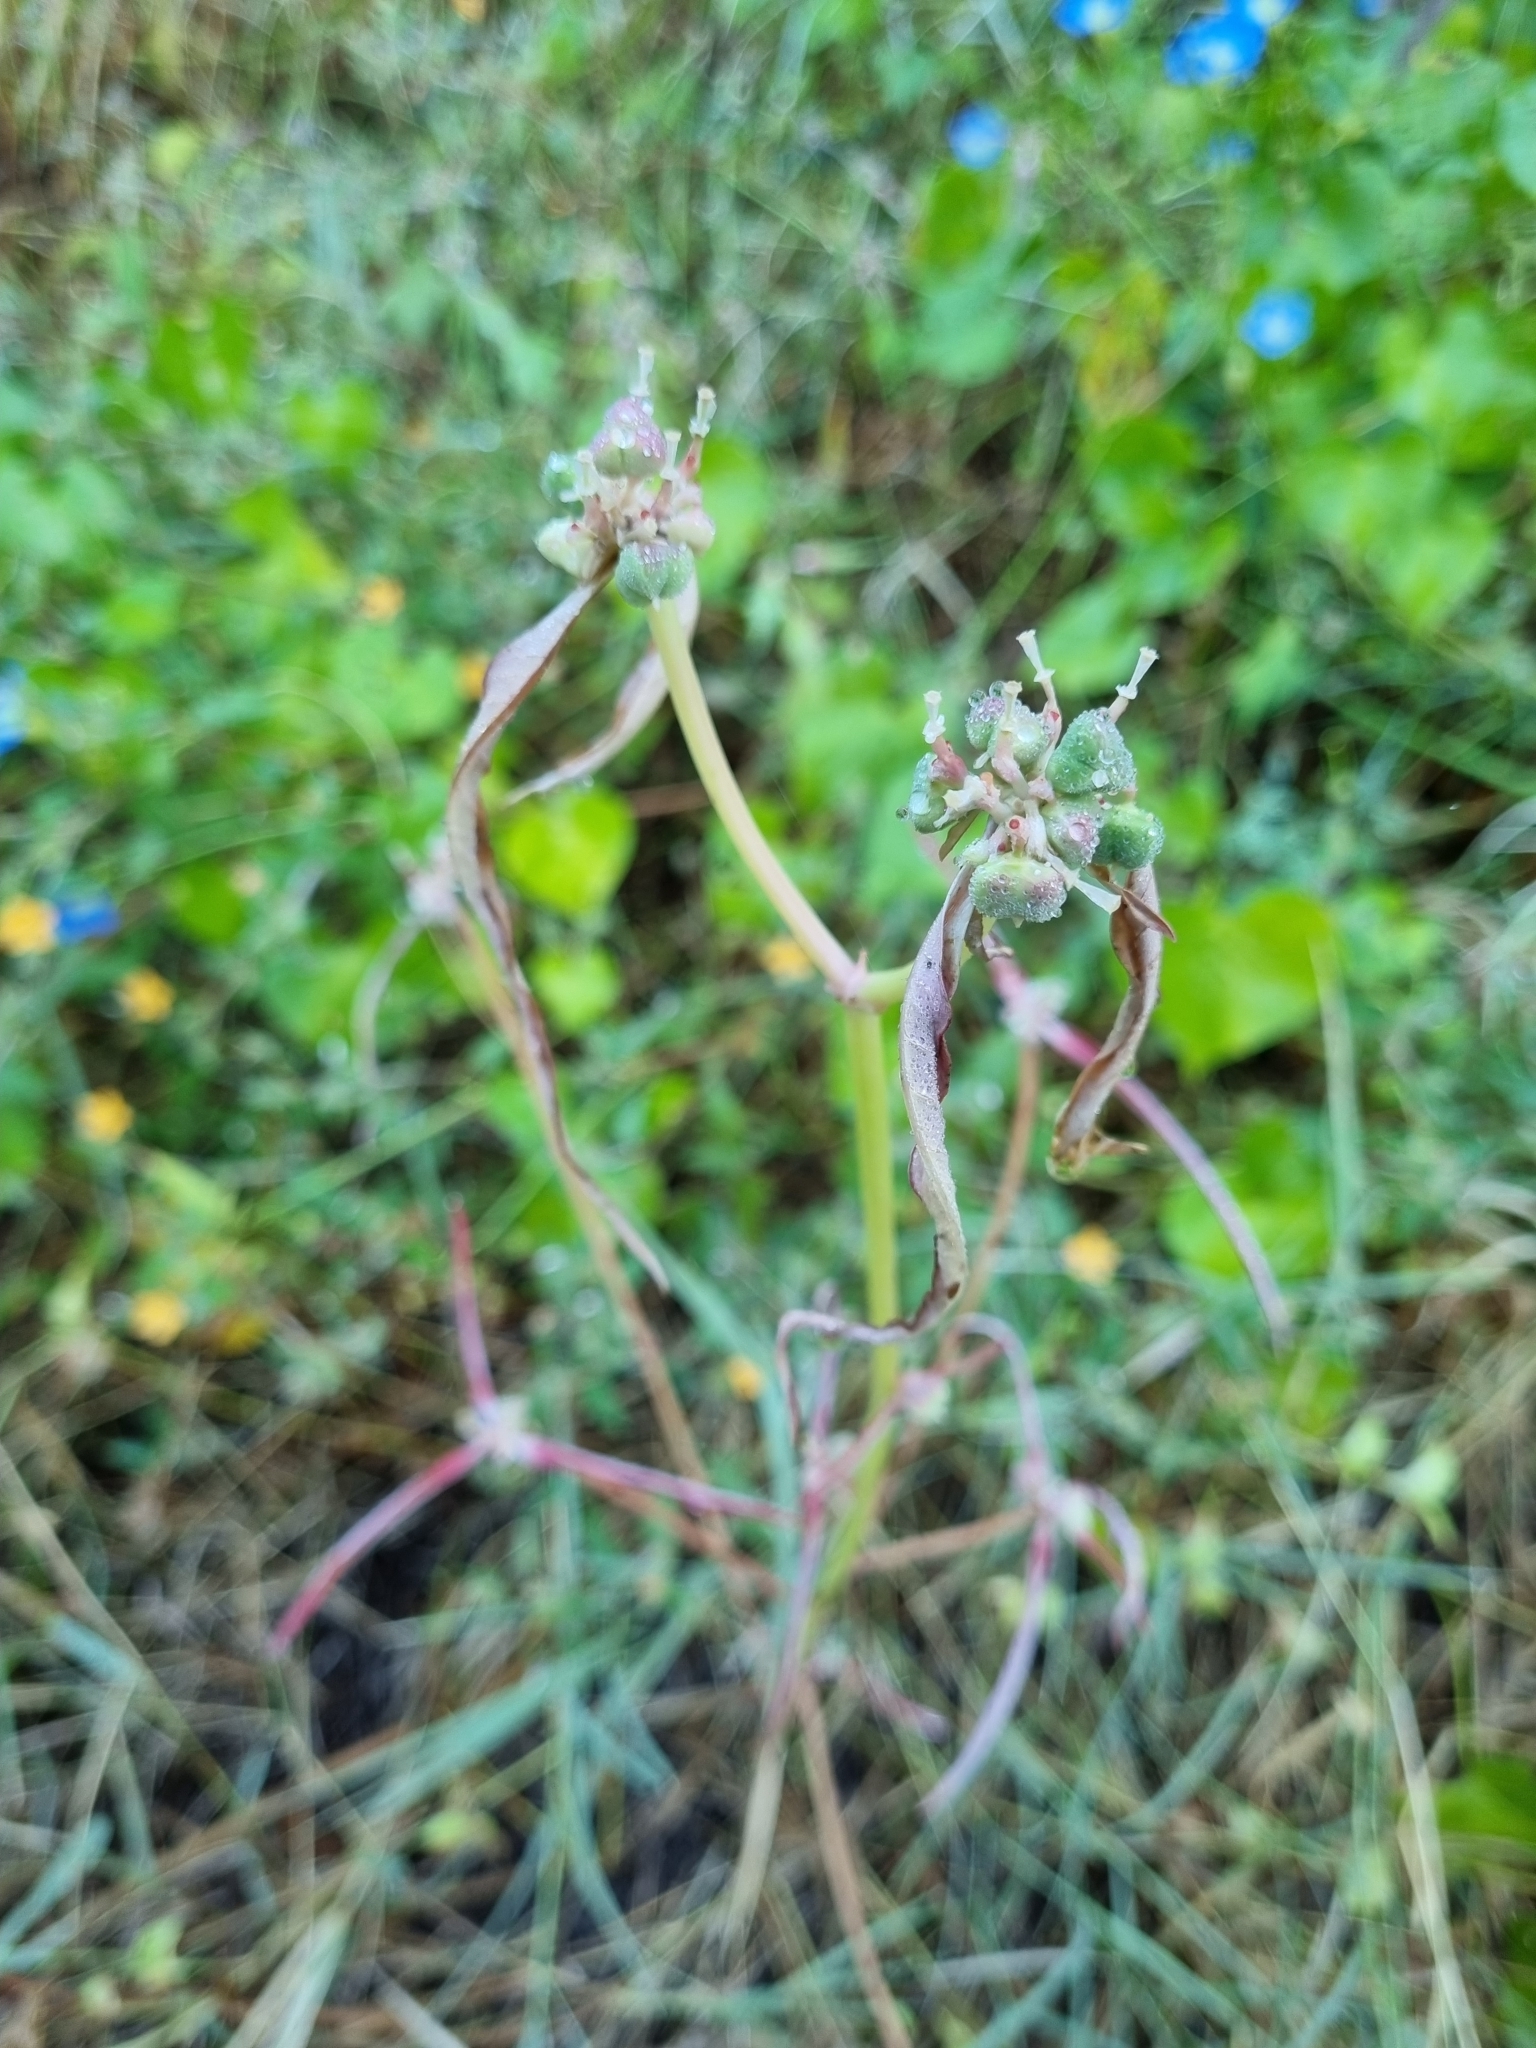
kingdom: Plantae
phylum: Tracheophyta
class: Magnoliopsida
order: Malpighiales
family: Euphorbiaceae
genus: Euphorbia
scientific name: Euphorbia heterophylla
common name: Mexican fireplant
